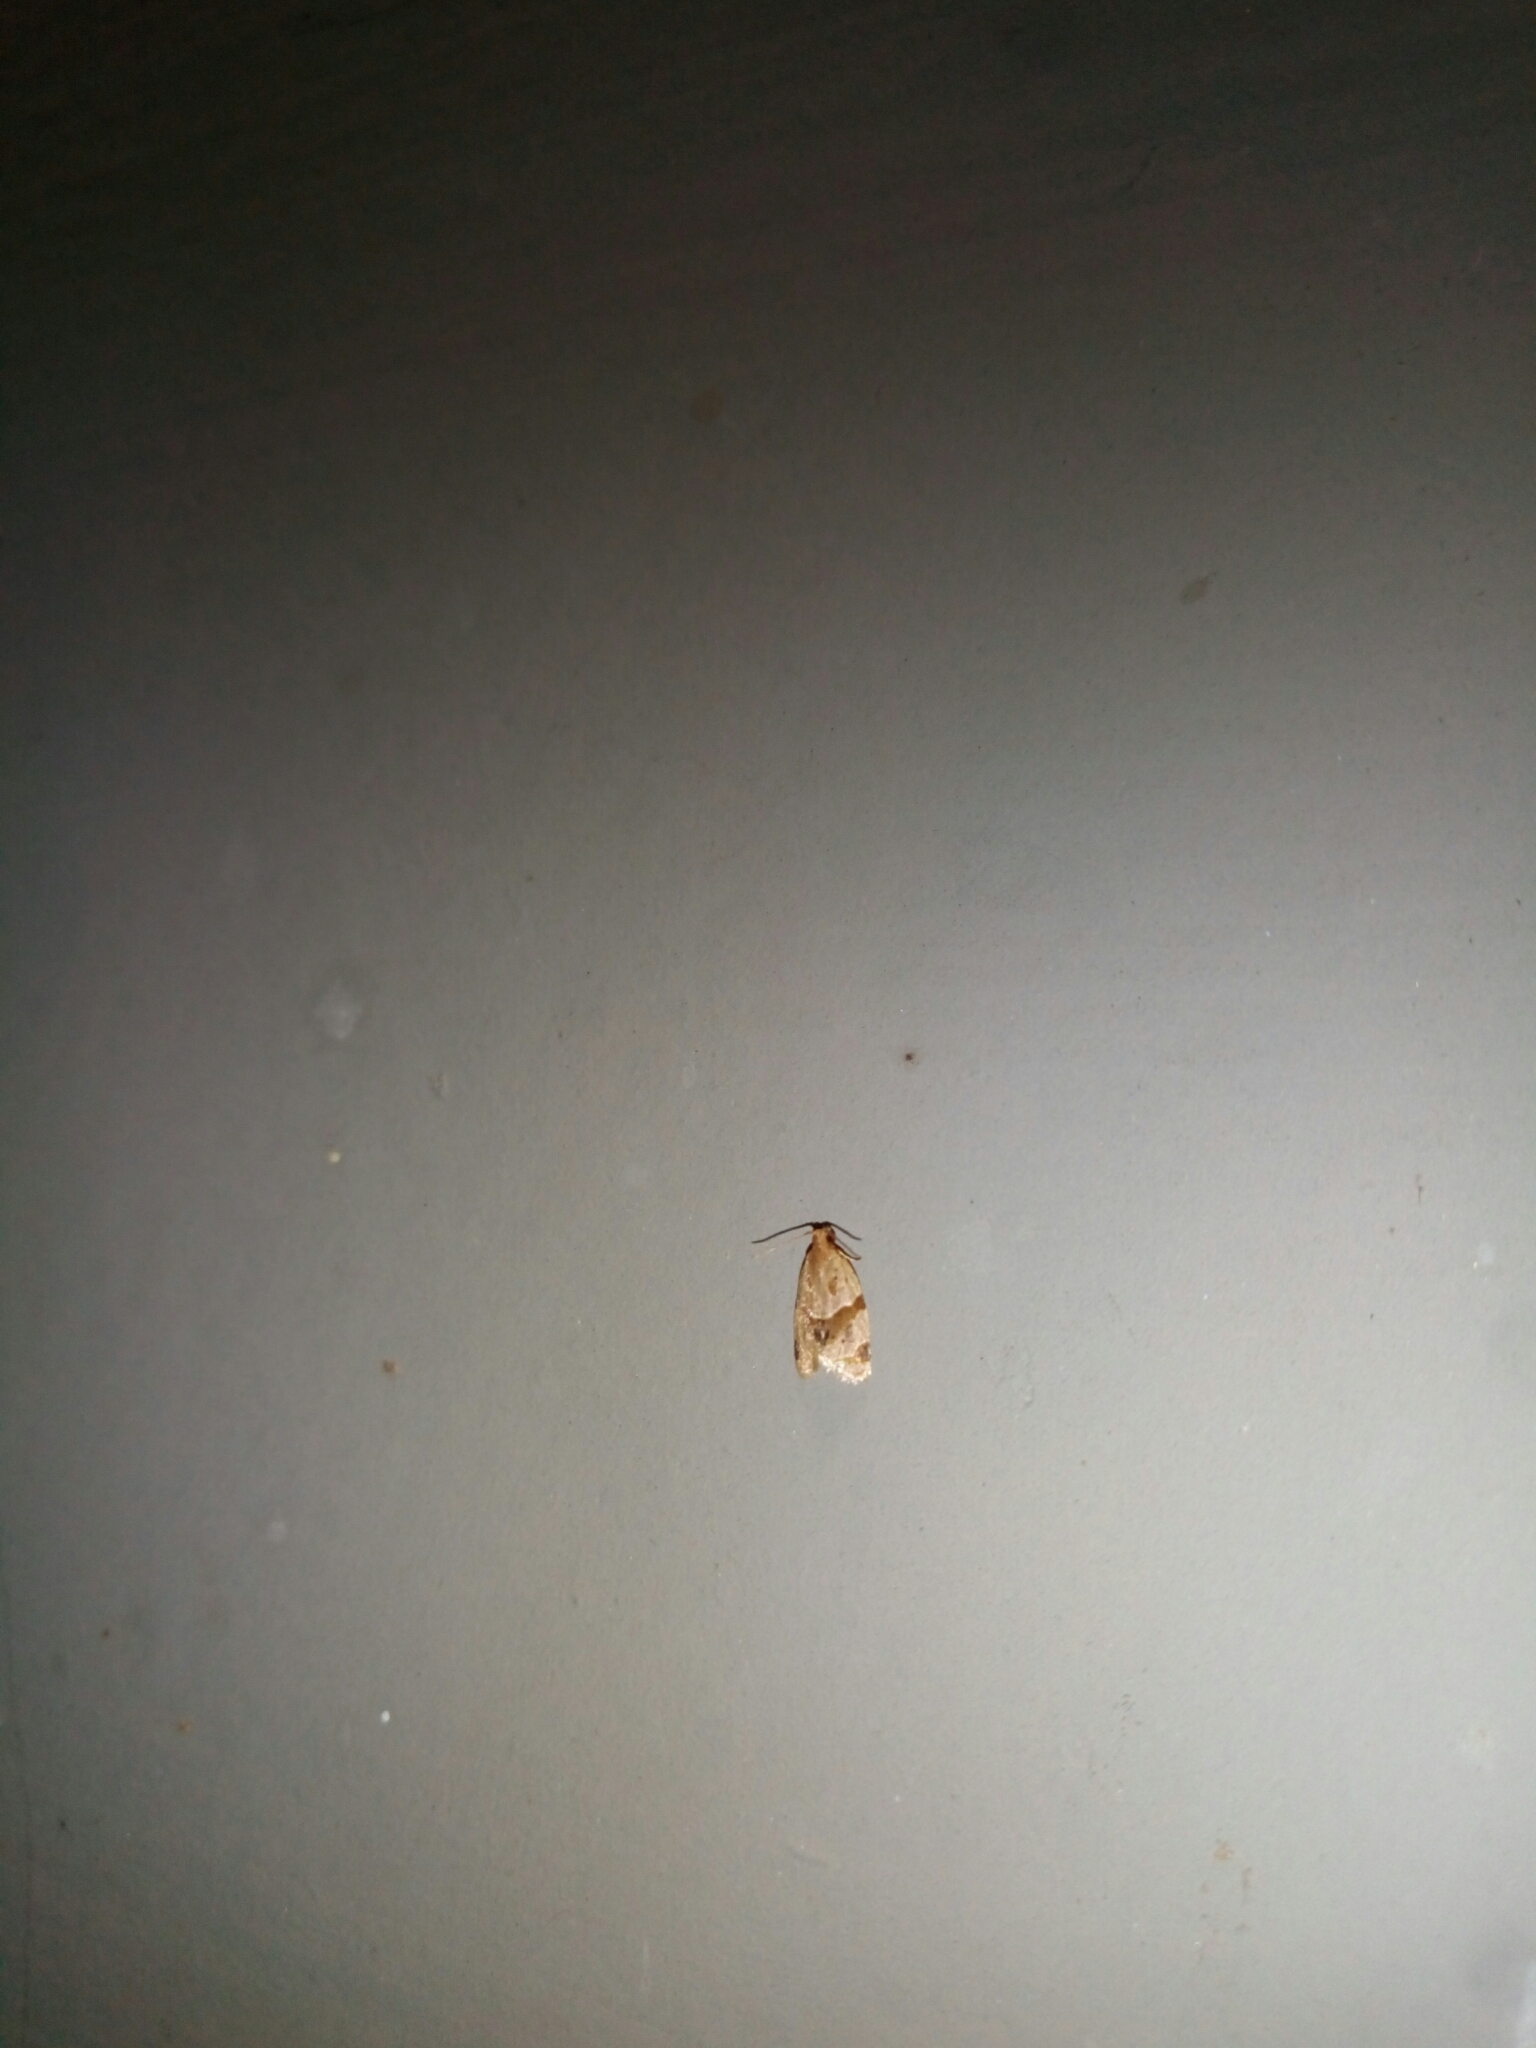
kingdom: Animalia
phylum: Arthropoda
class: Insecta
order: Lepidoptera
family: Tortricidae
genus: Clepsis
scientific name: Clepsis peritana
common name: Garden tortrix
